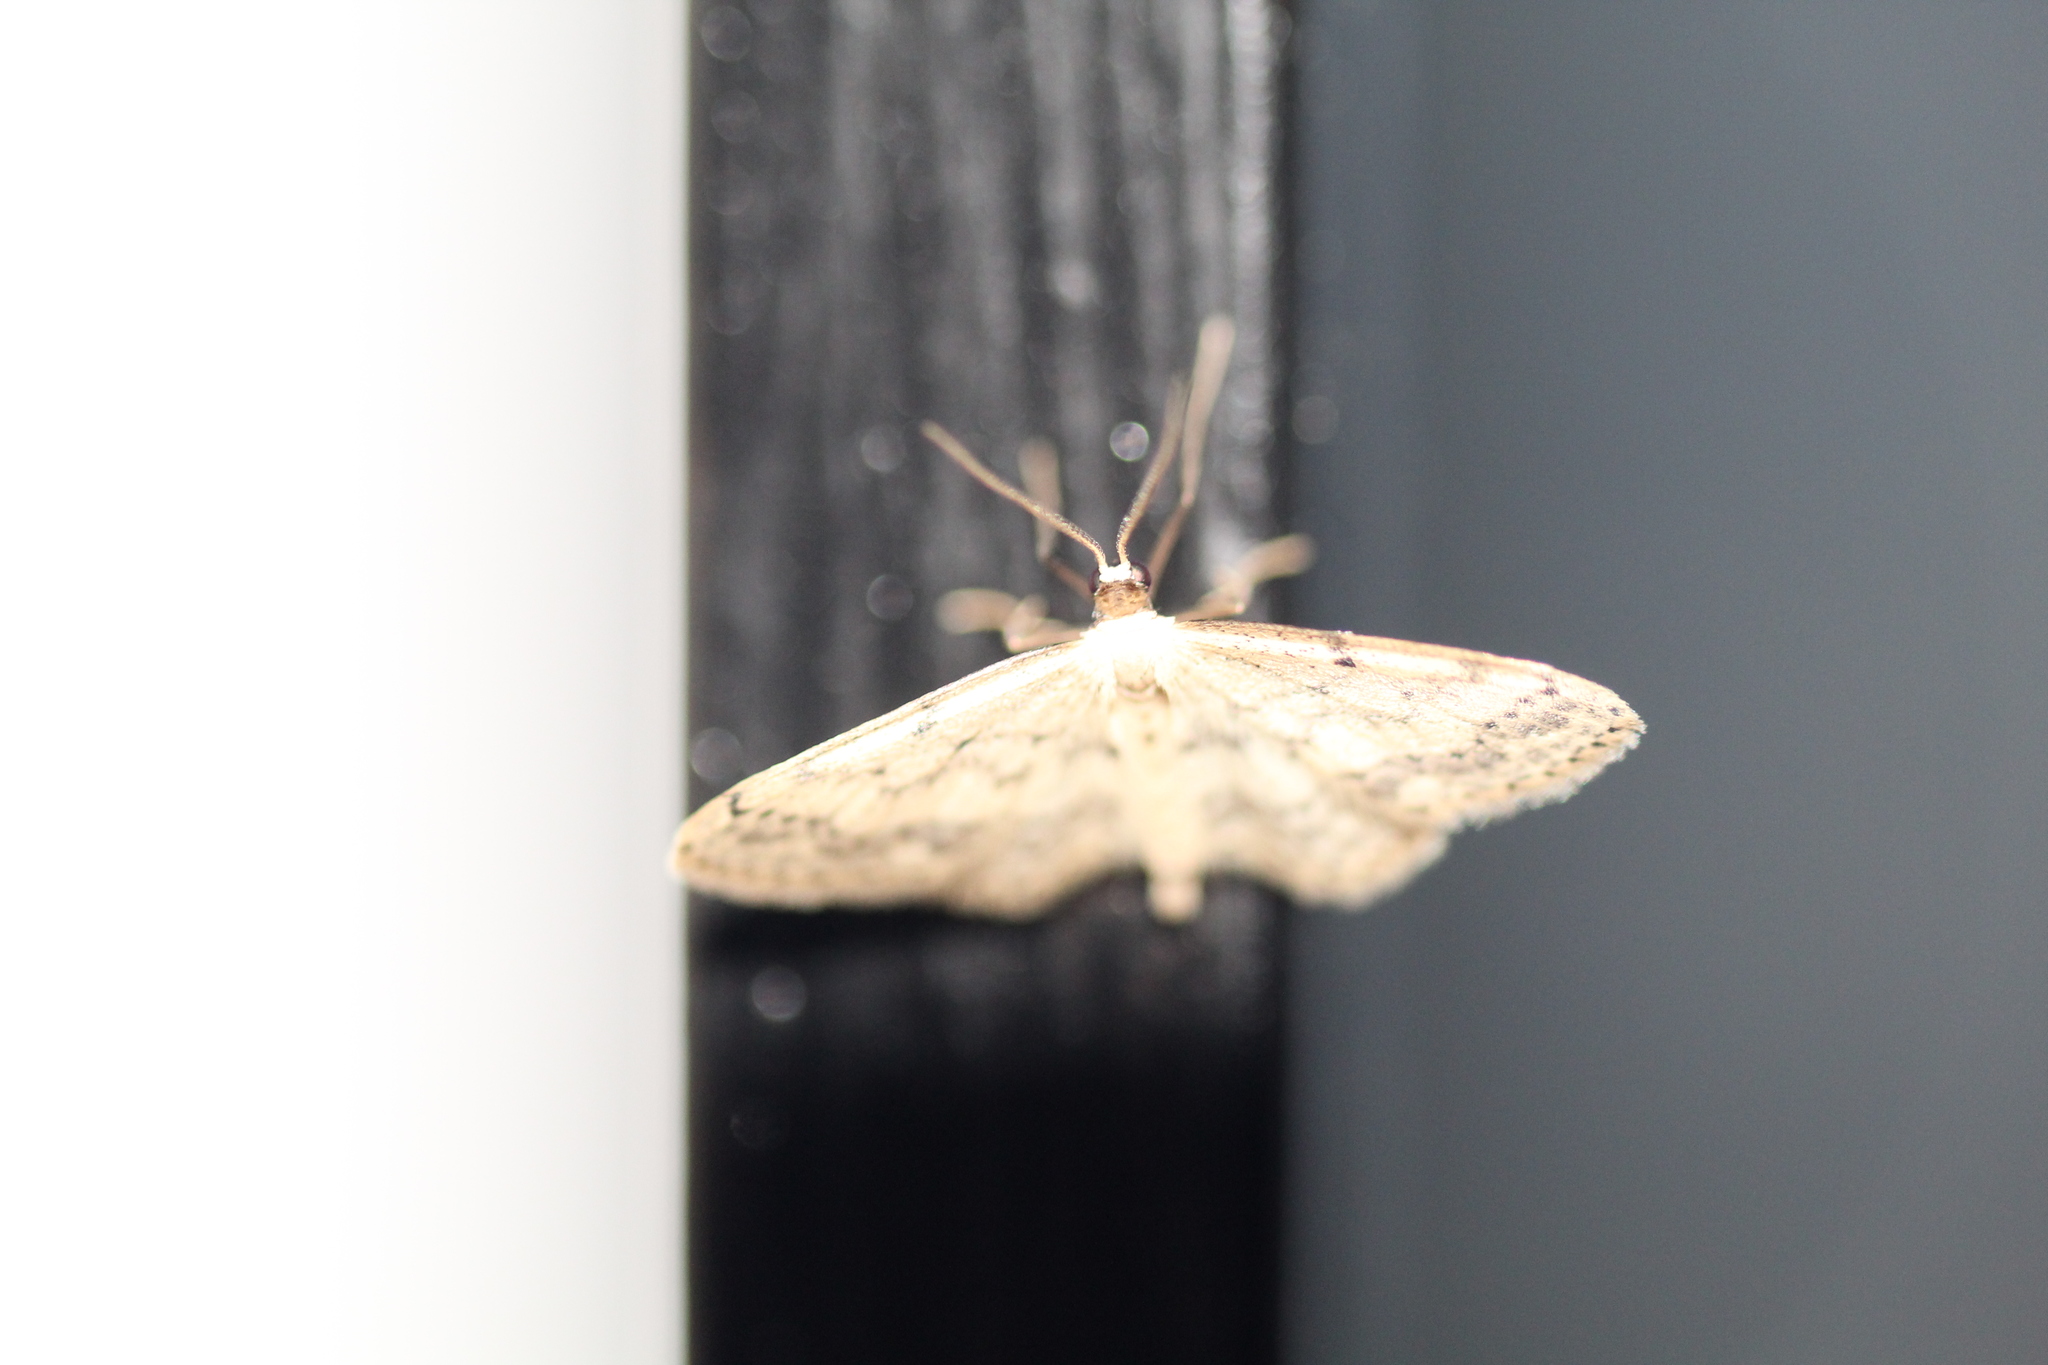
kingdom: Animalia
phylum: Arthropoda
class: Insecta
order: Lepidoptera
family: Geometridae
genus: Idaea
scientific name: Idaea seriata
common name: Small dusty wave
